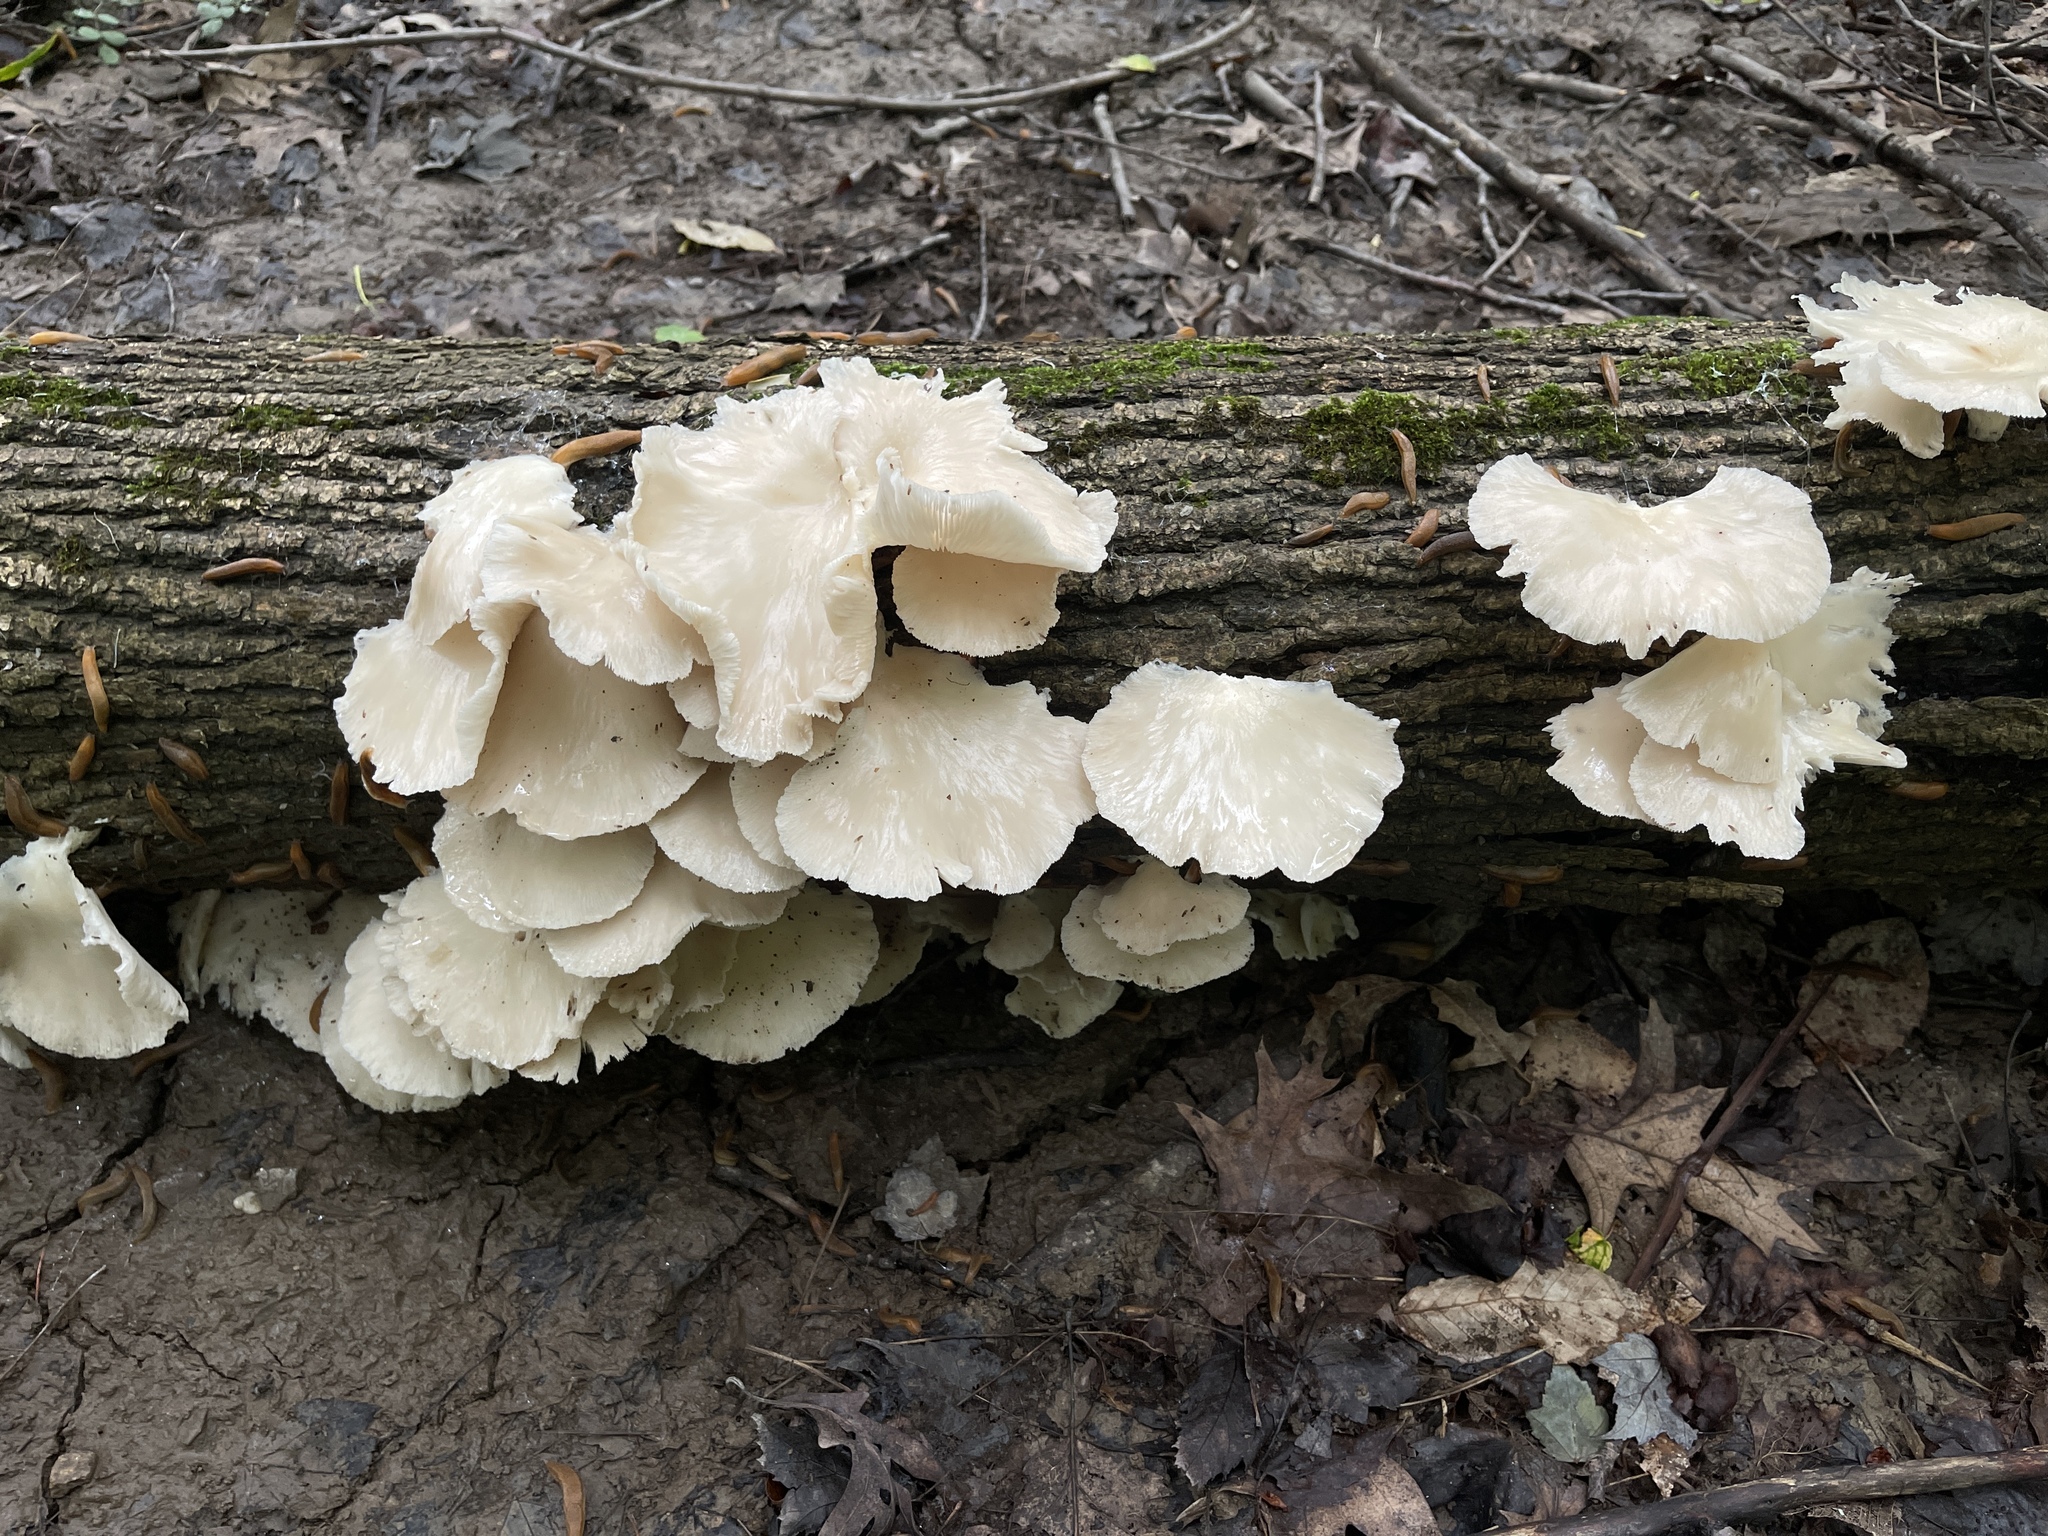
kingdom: Fungi
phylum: Basidiomycota
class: Agaricomycetes
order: Agaricales
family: Pleurotaceae
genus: Pleurotus
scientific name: Pleurotus pulmonarius
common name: Pale oyster
